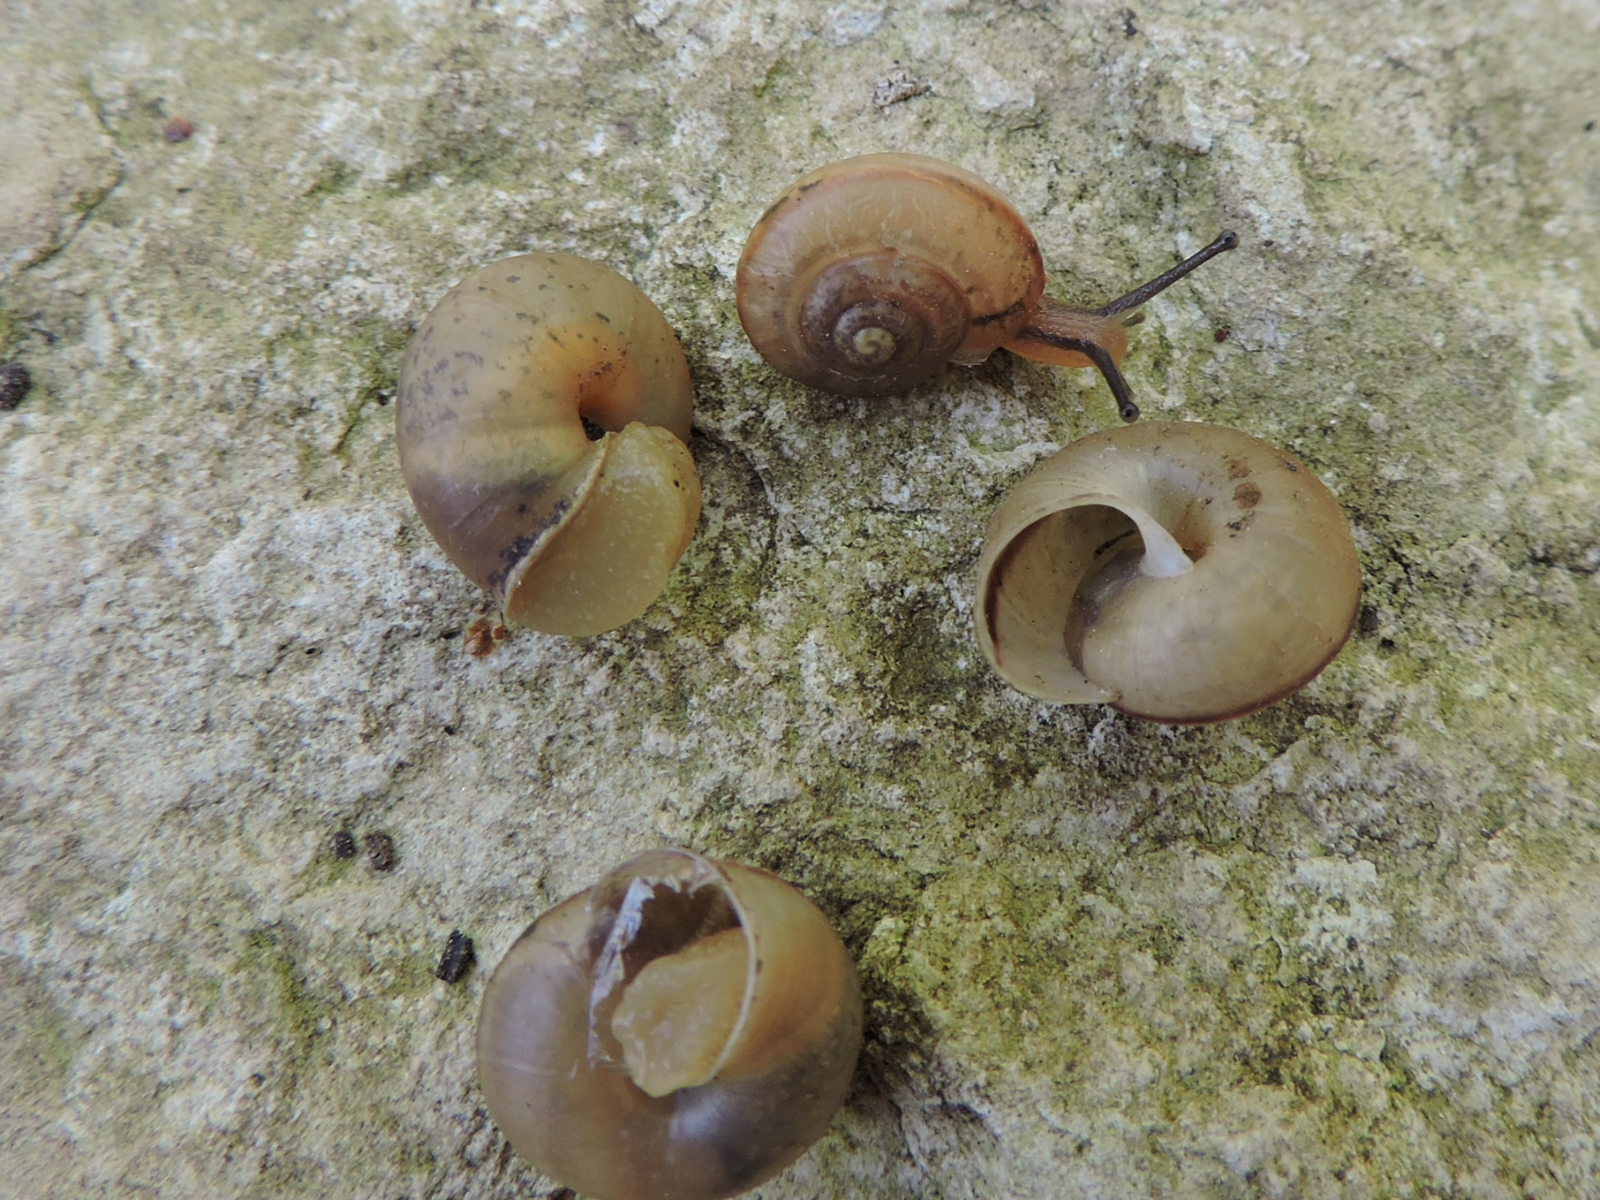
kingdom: Animalia
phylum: Mollusca
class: Gastropoda
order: Stylommatophora
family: Camaenidae
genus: Bradybaena
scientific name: Bradybaena similaris
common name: Asian trampsnail
